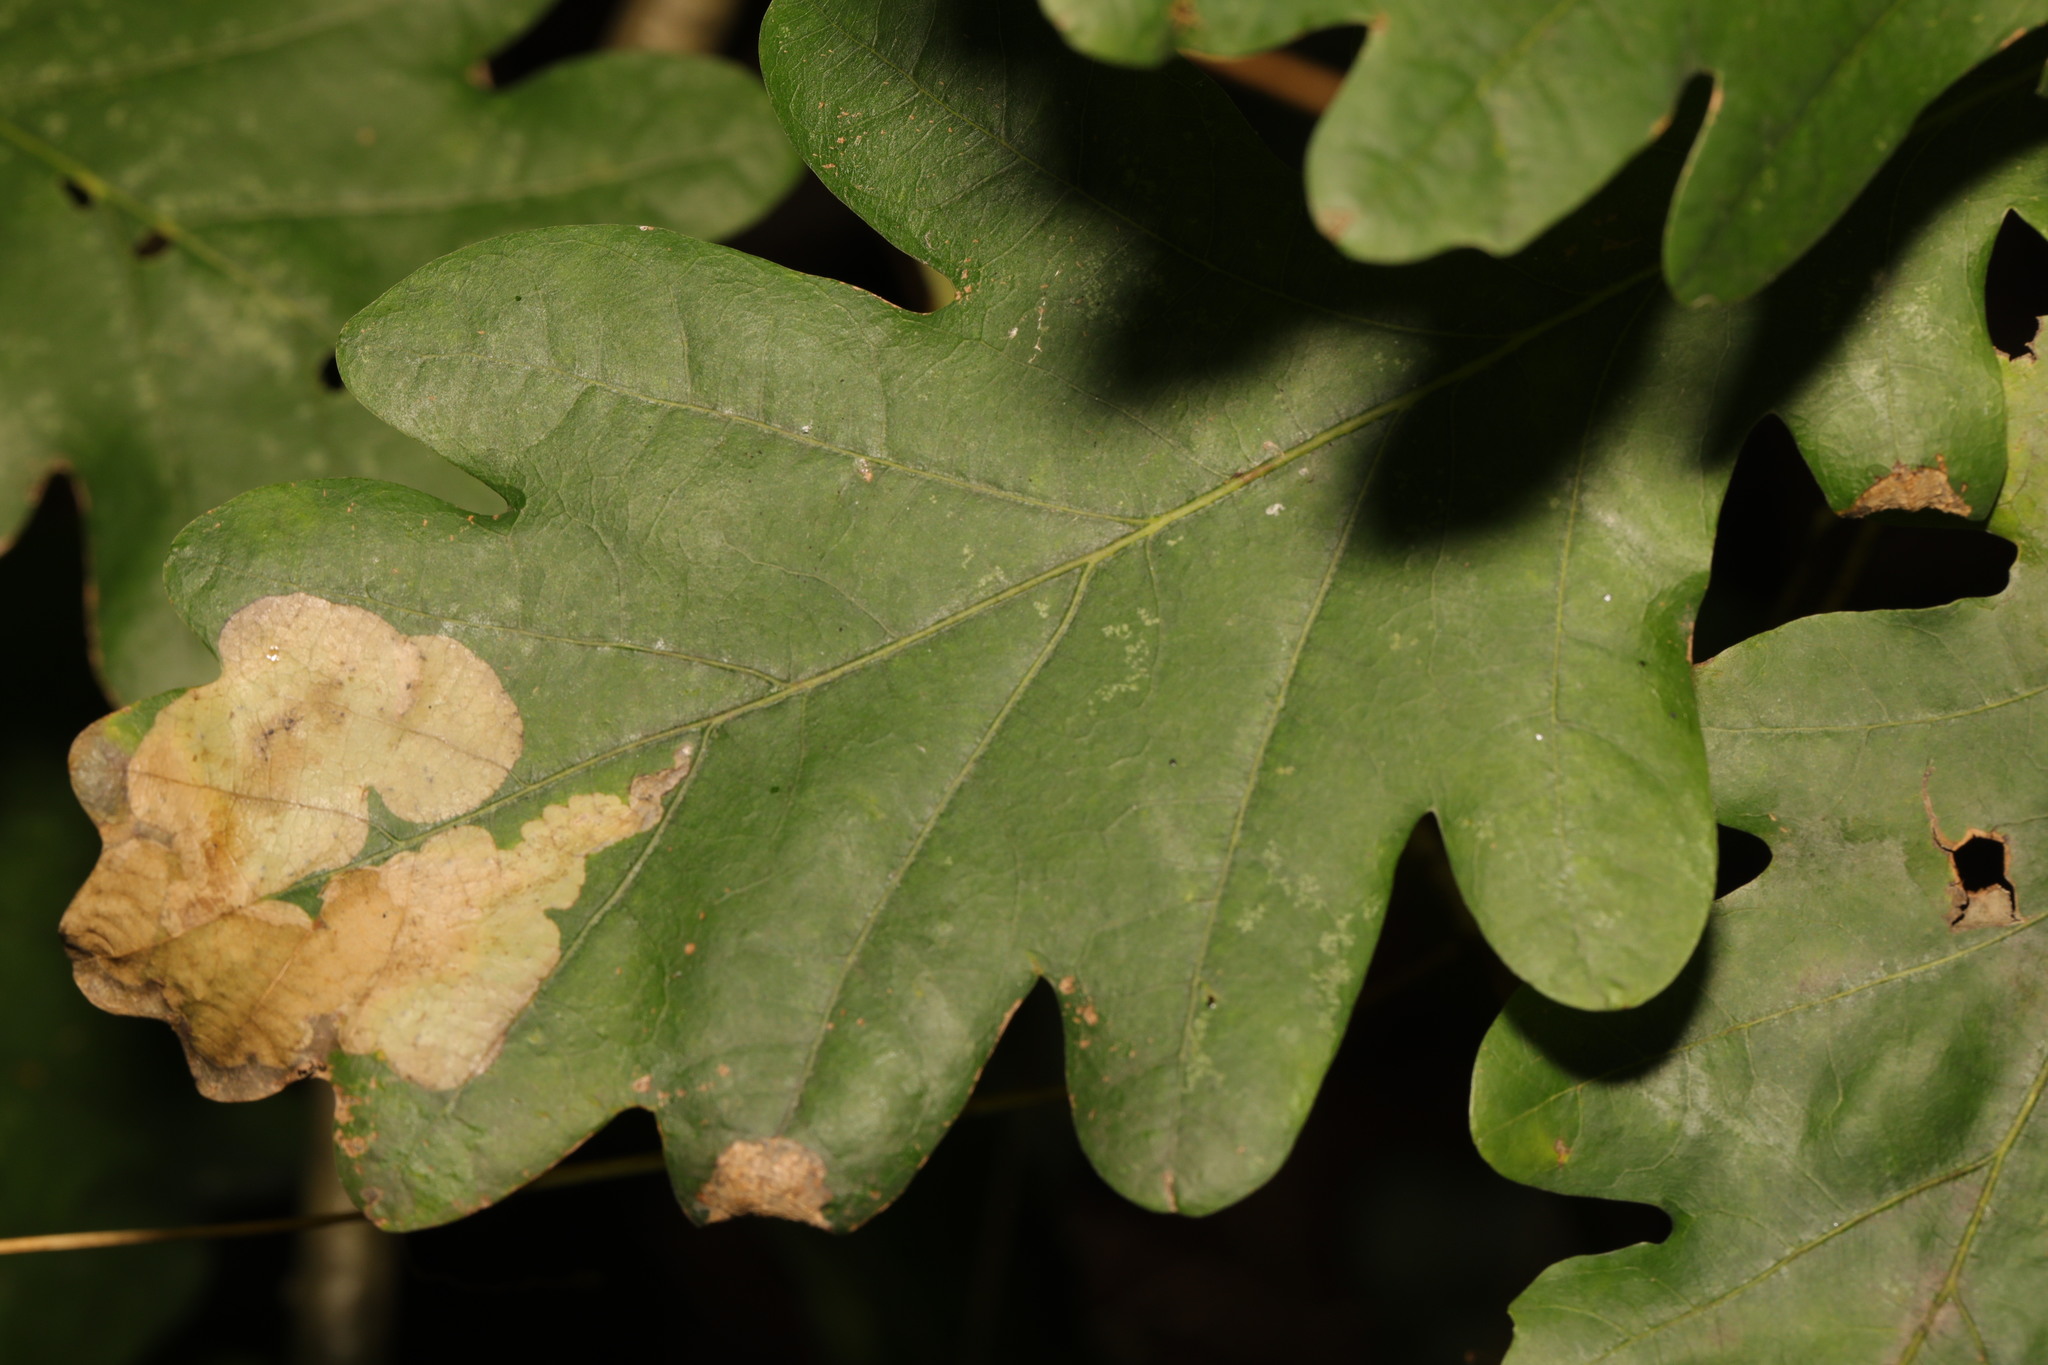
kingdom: Animalia
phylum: Arthropoda
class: Insecta
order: Lepidoptera
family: Eriocraniidae
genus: Dyseriocrania
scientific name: Dyseriocrania subpurpurella
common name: Common oak purple
